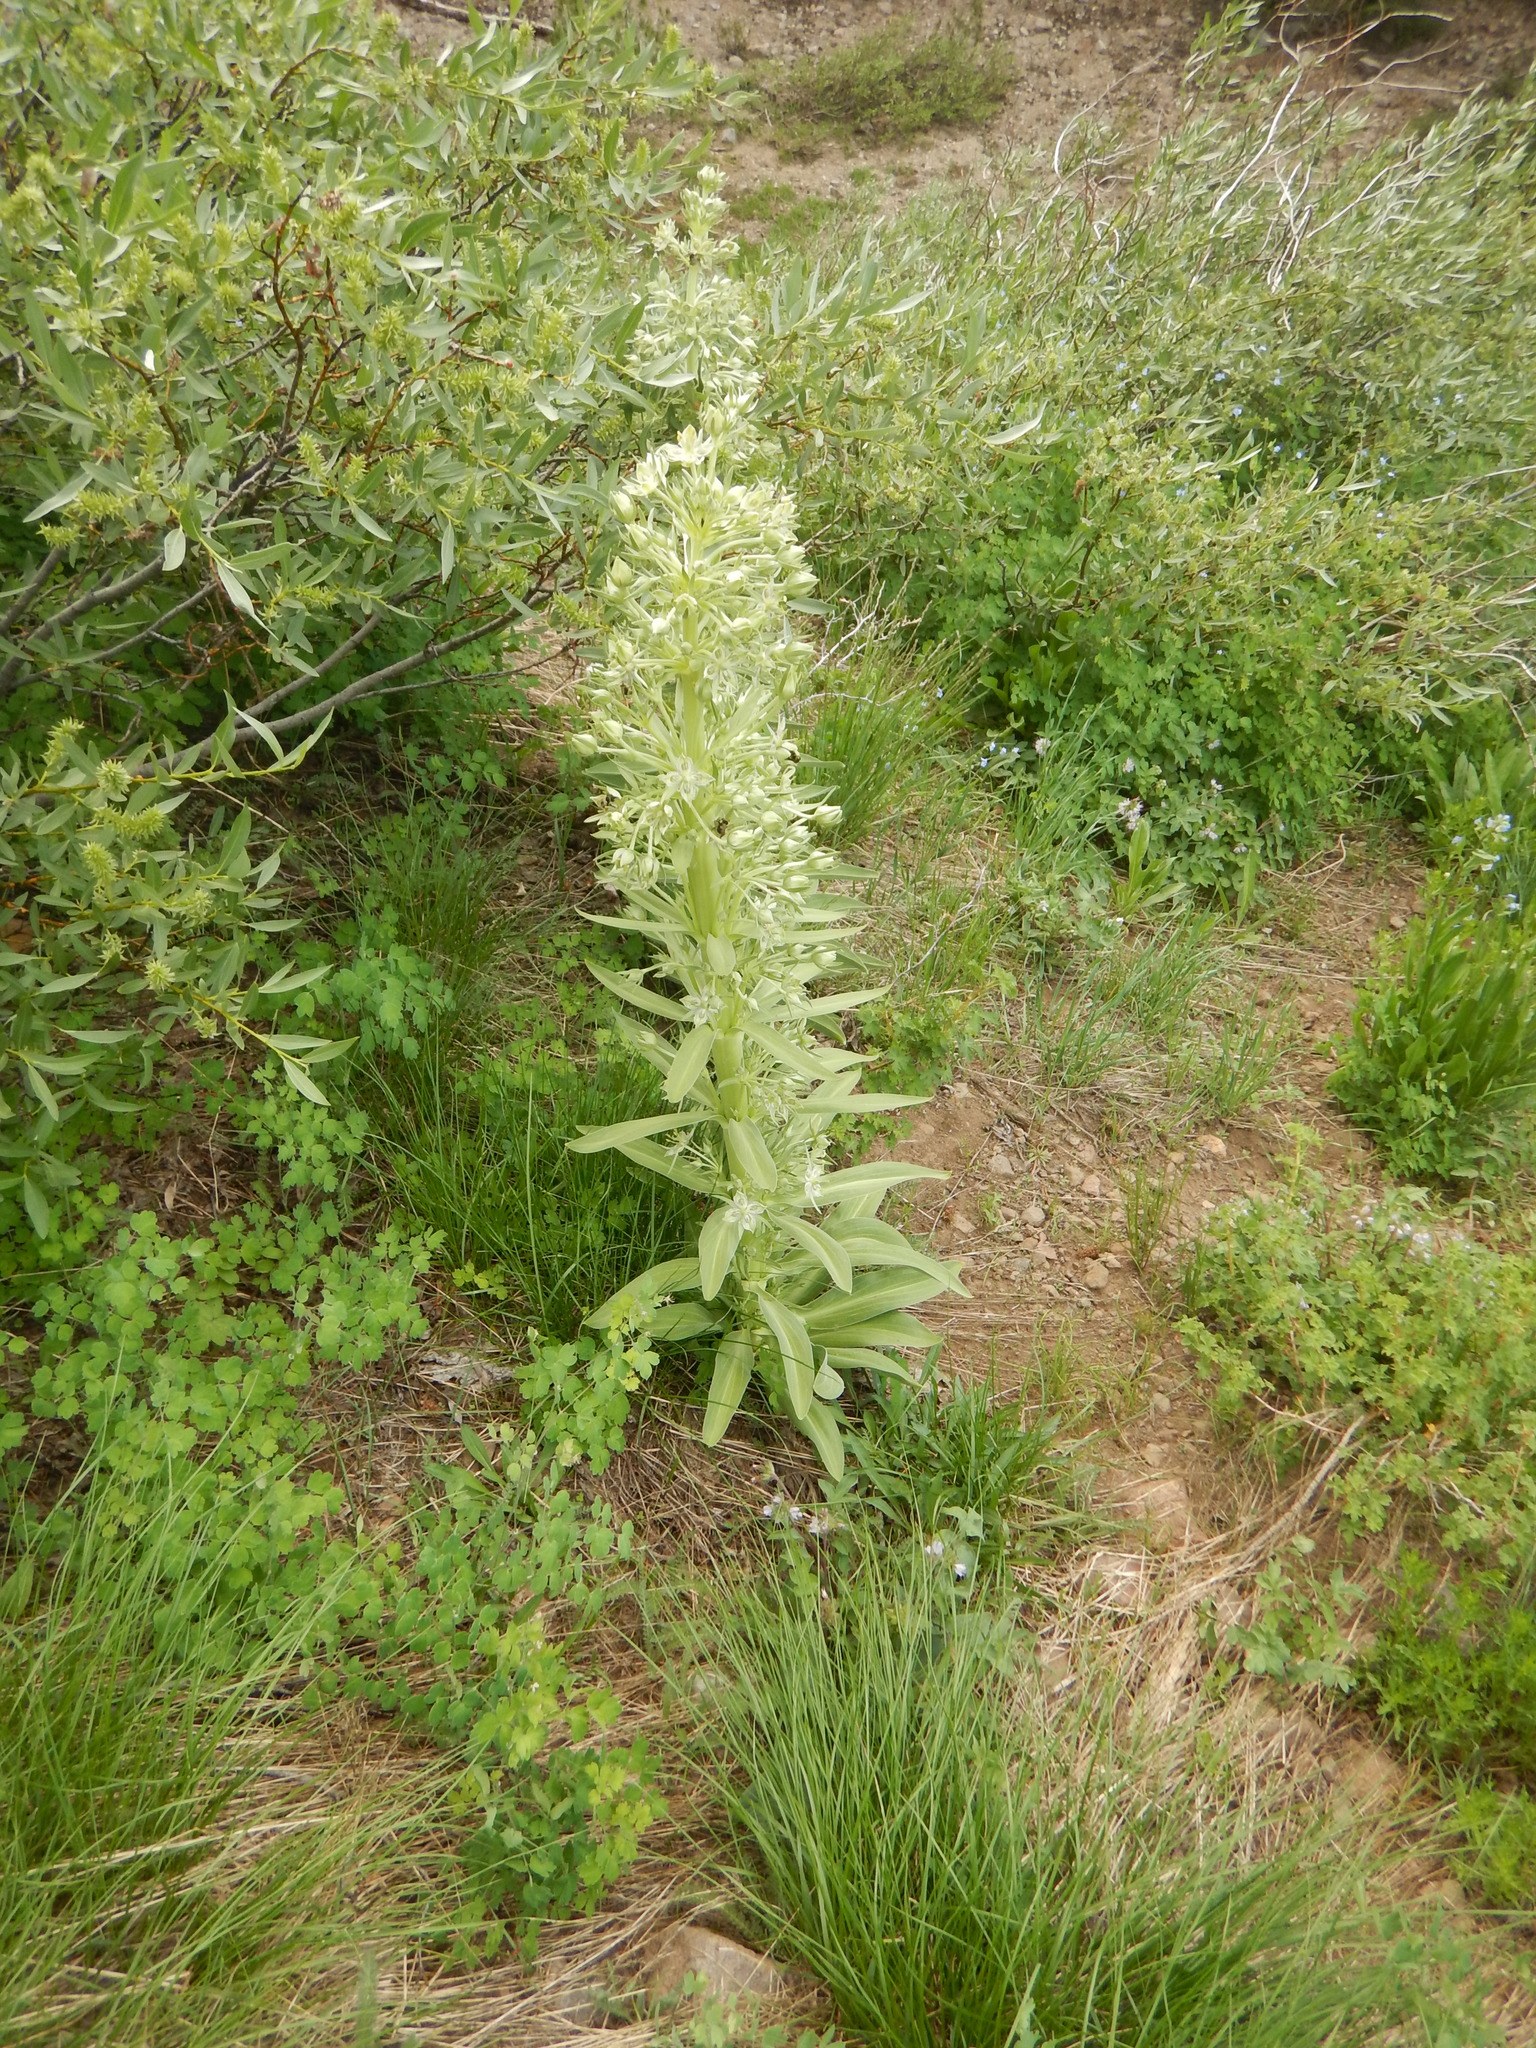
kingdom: Plantae
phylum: Tracheophyta
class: Magnoliopsida
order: Gentianales
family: Gentianaceae
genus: Frasera
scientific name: Frasera speciosa
